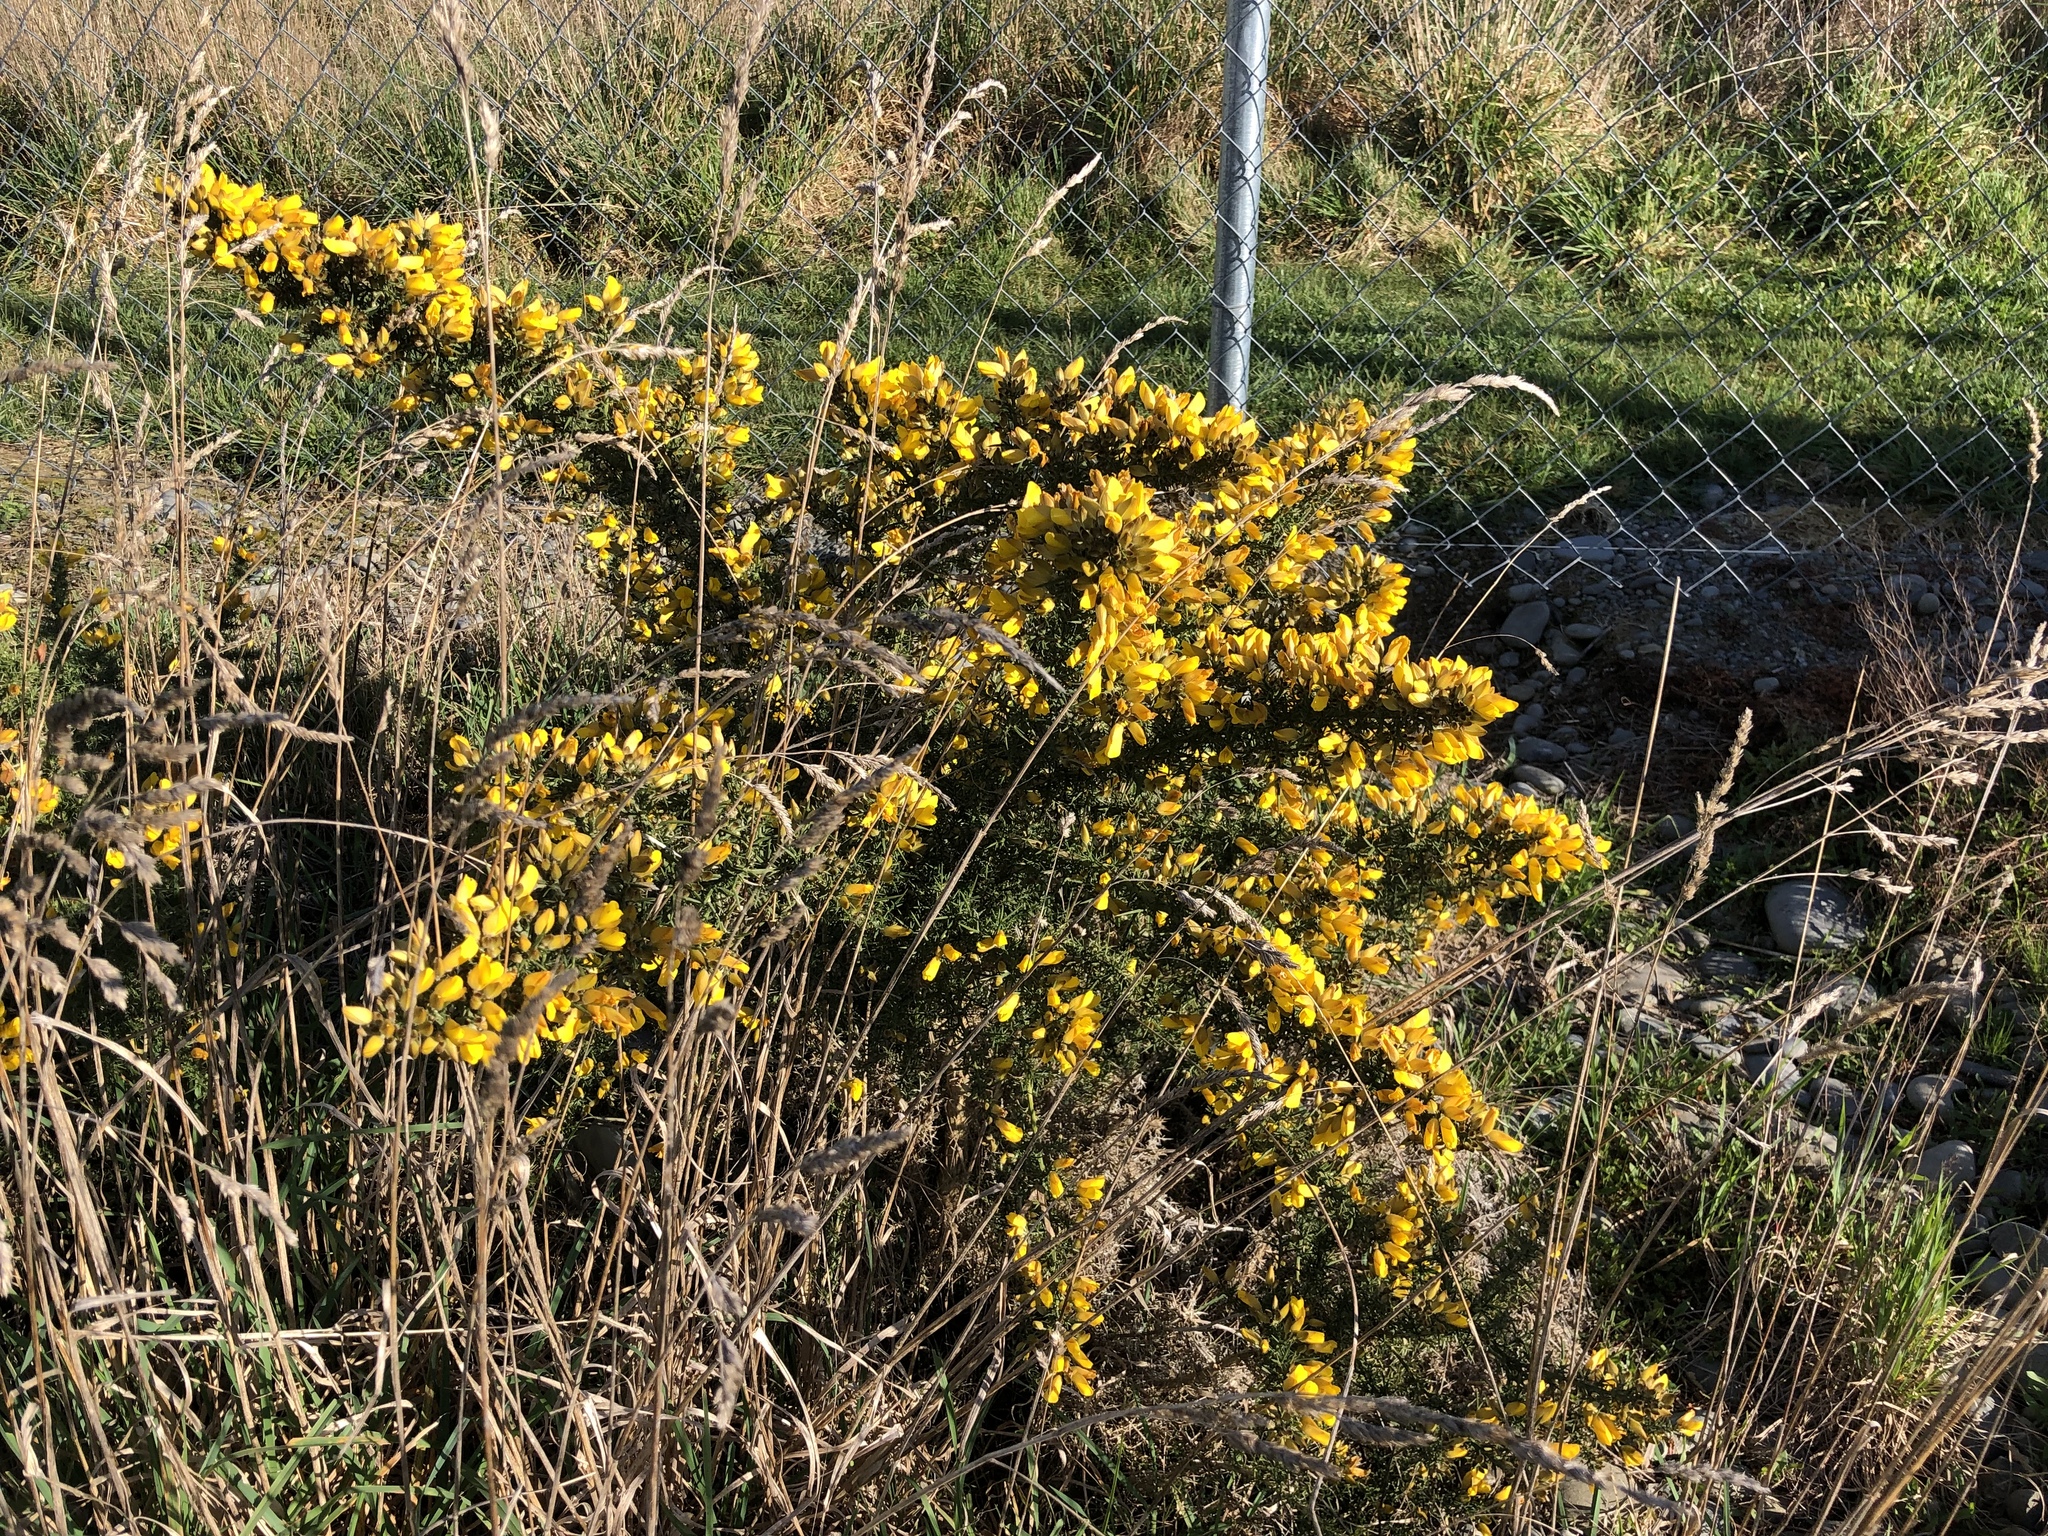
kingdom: Plantae
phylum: Tracheophyta
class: Magnoliopsida
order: Fabales
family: Fabaceae
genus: Ulex
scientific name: Ulex europaeus
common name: Common gorse
